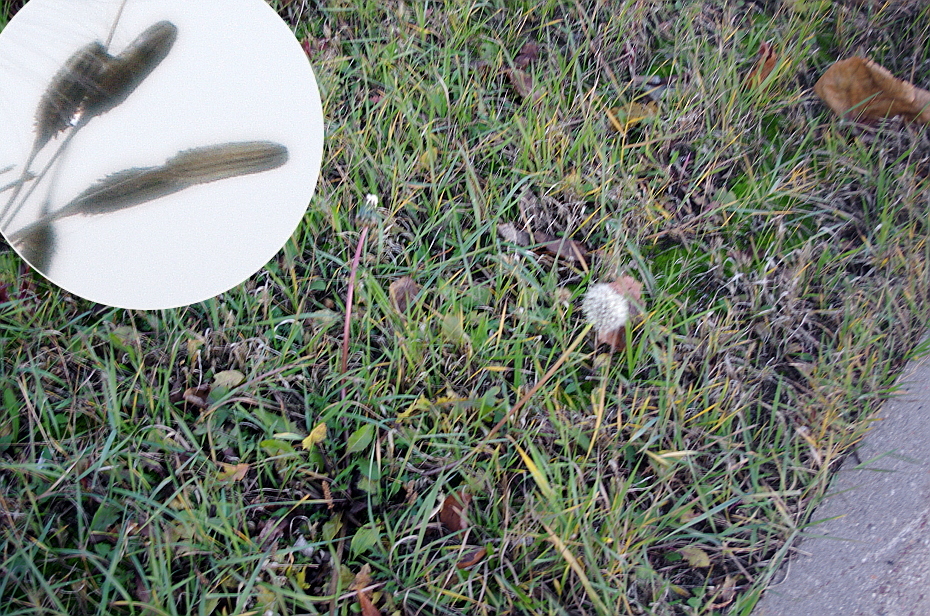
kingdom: Plantae
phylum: Tracheophyta
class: Magnoliopsida
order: Asterales
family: Asteraceae
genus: Taraxacum
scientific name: Taraxacum officinale
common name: Common dandelion
